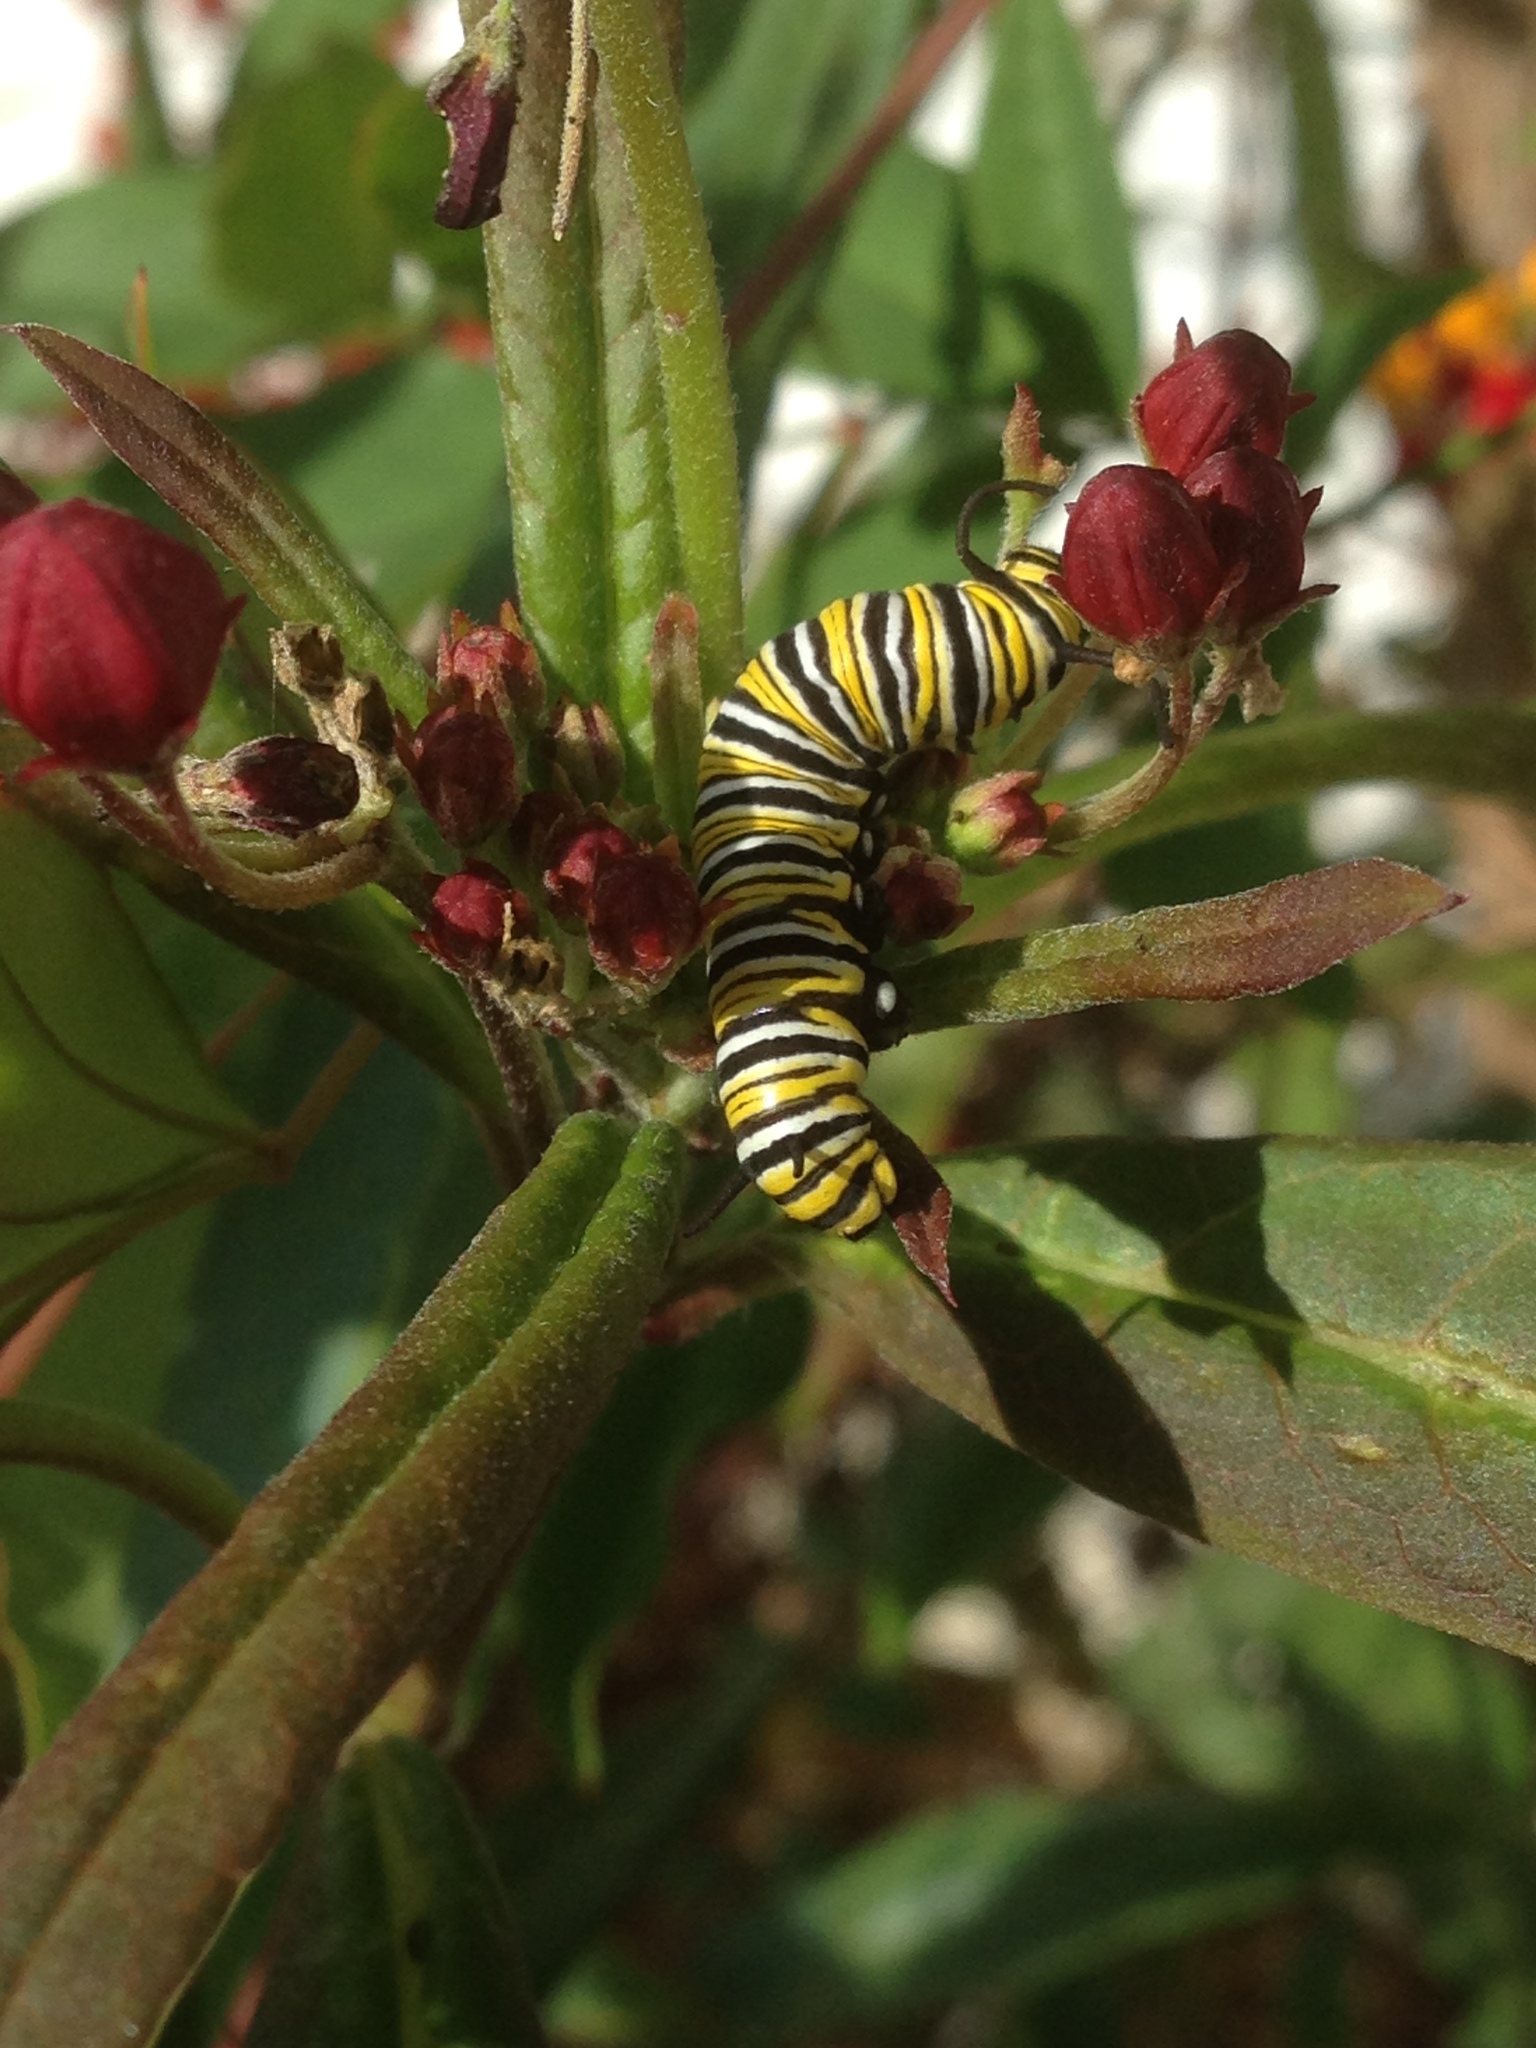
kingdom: Animalia
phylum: Arthropoda
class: Insecta
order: Lepidoptera
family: Nymphalidae
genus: Danaus
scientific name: Danaus plexippus
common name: Monarch
